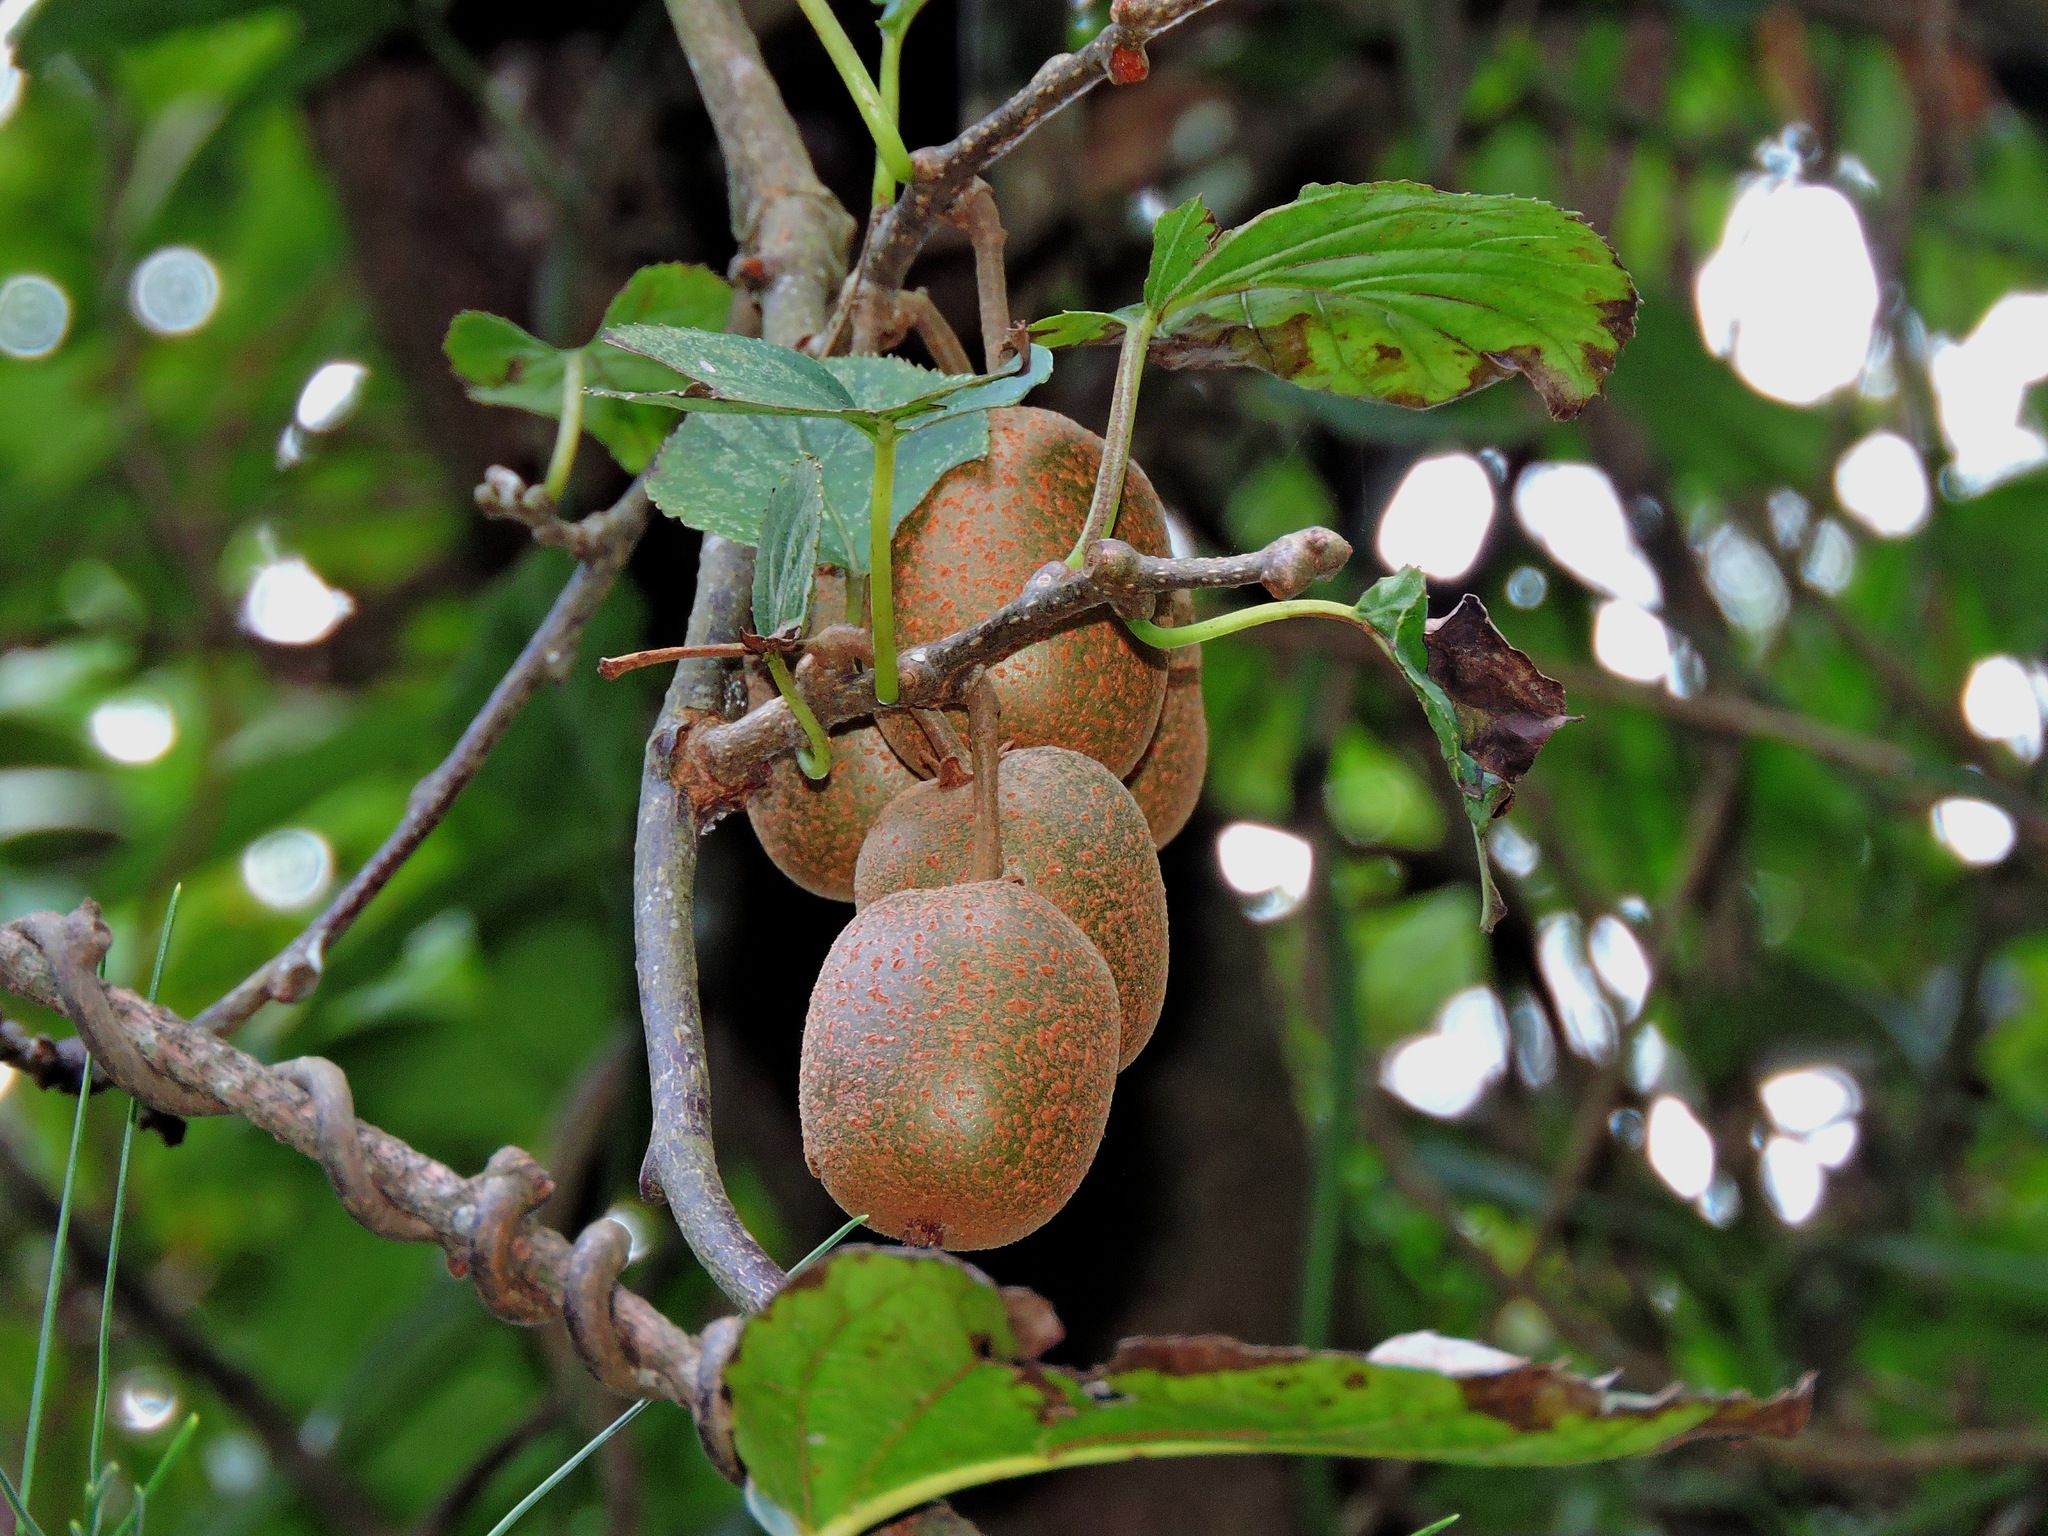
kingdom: Plantae
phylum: Tracheophyta
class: Magnoliopsida
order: Ericales
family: Actinidiaceae
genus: Actinidia
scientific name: Actinidia rufa
